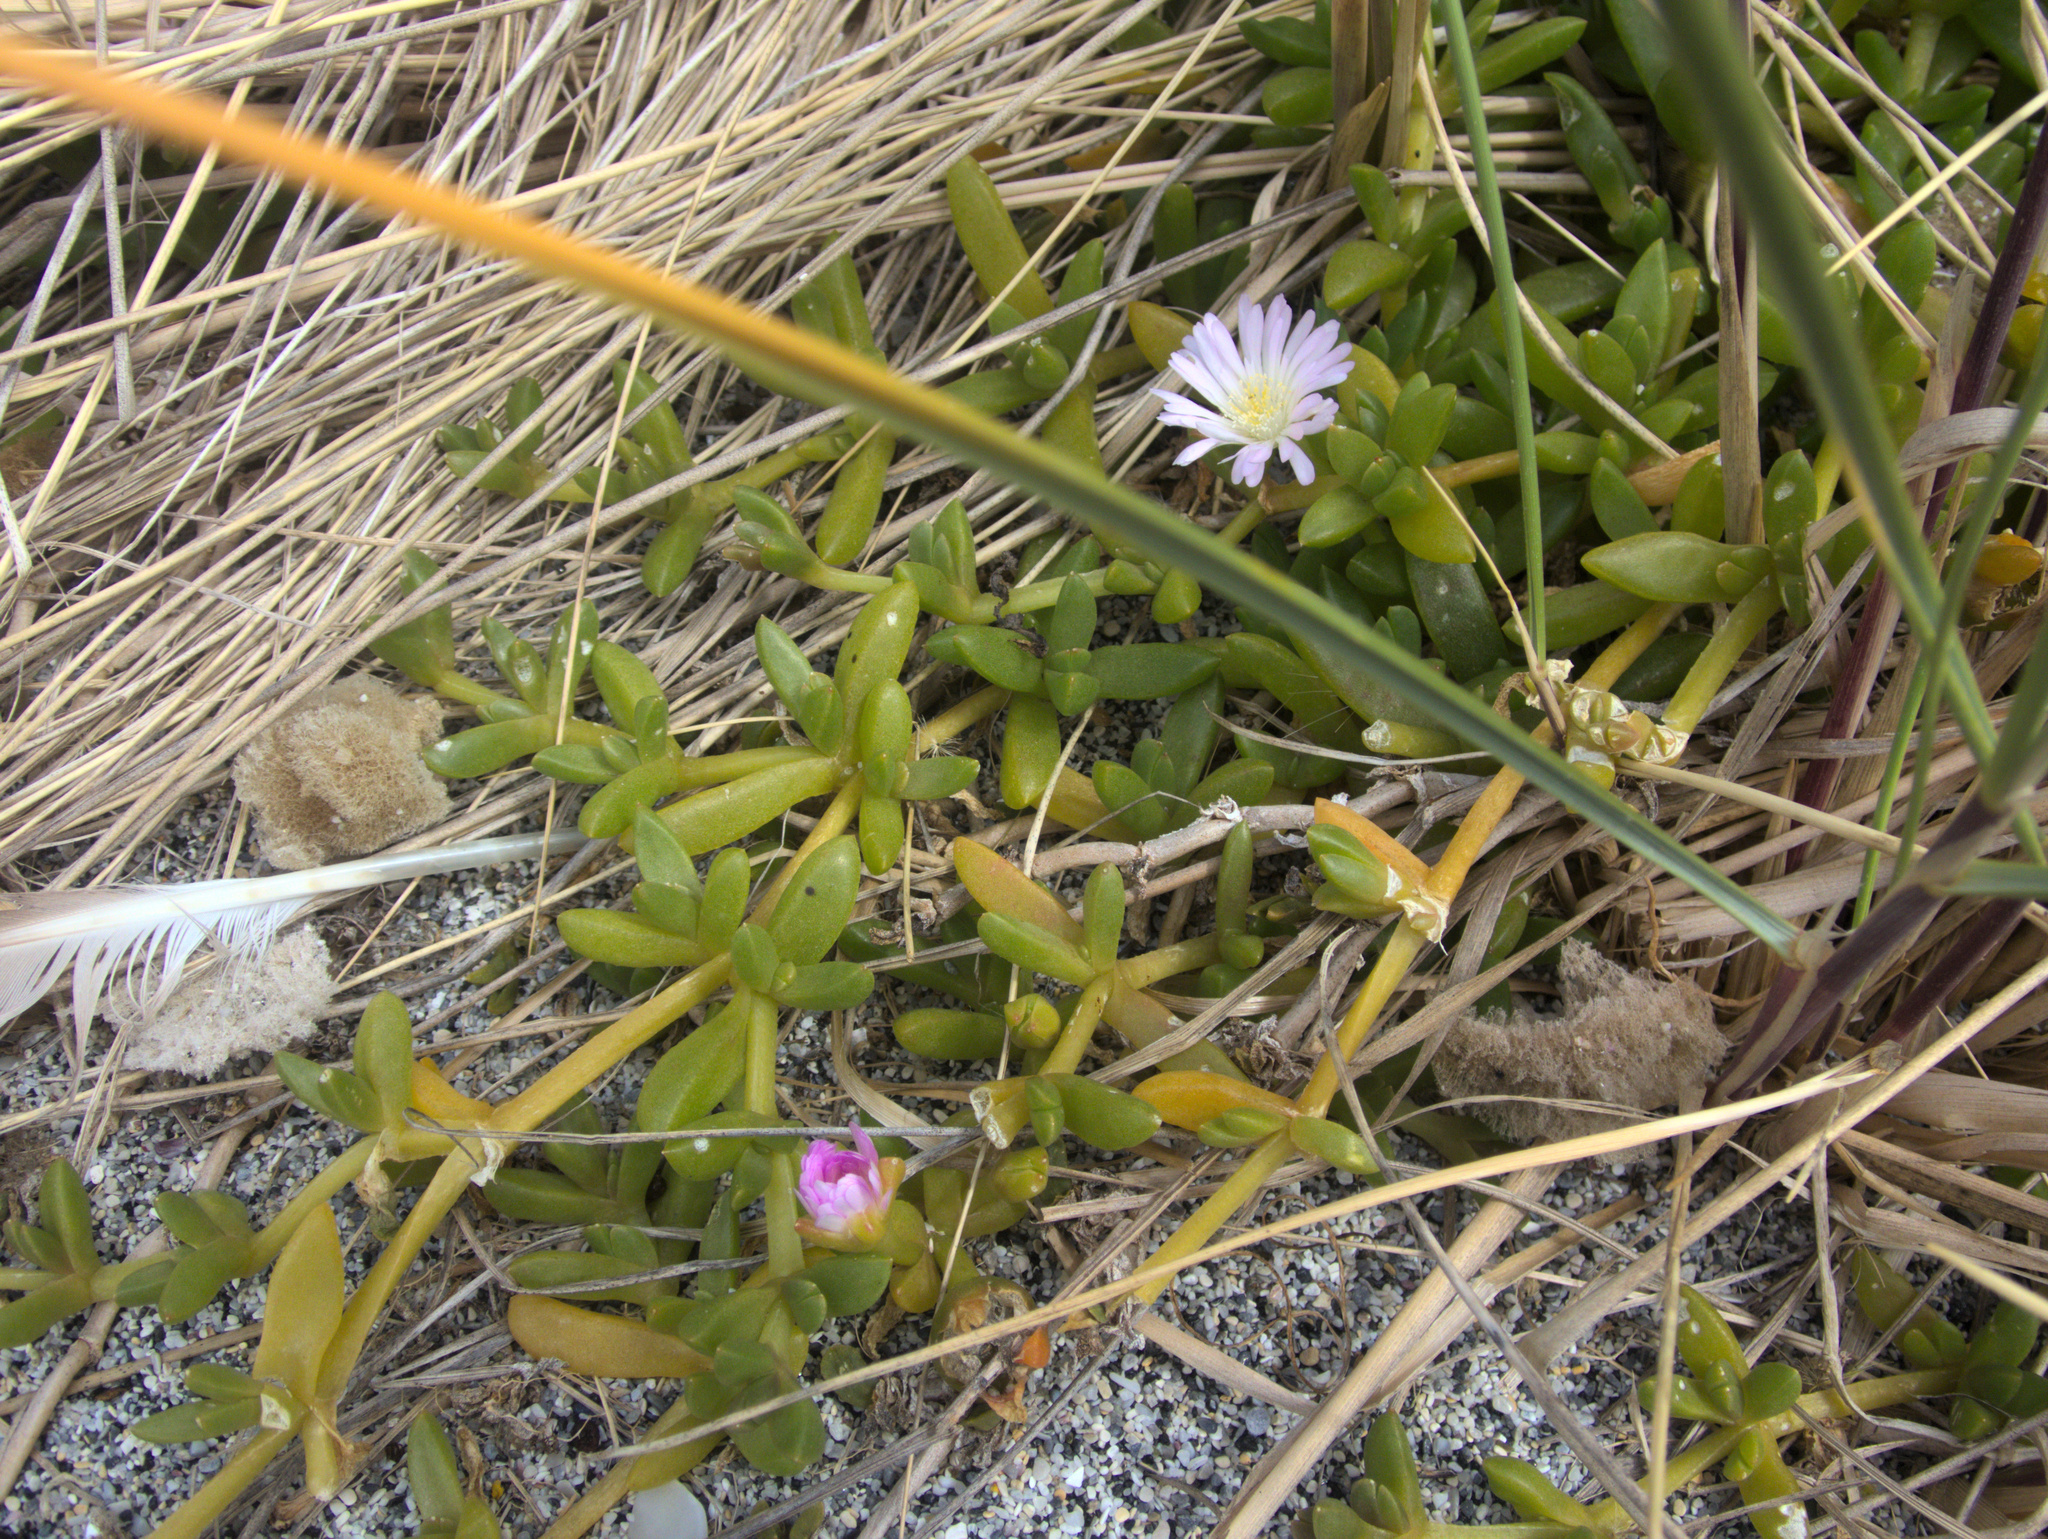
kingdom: Plantae
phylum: Tracheophyta
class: Magnoliopsida
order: Caryophyllales
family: Aizoaceae
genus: Disphyma
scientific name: Disphyma papillatum
